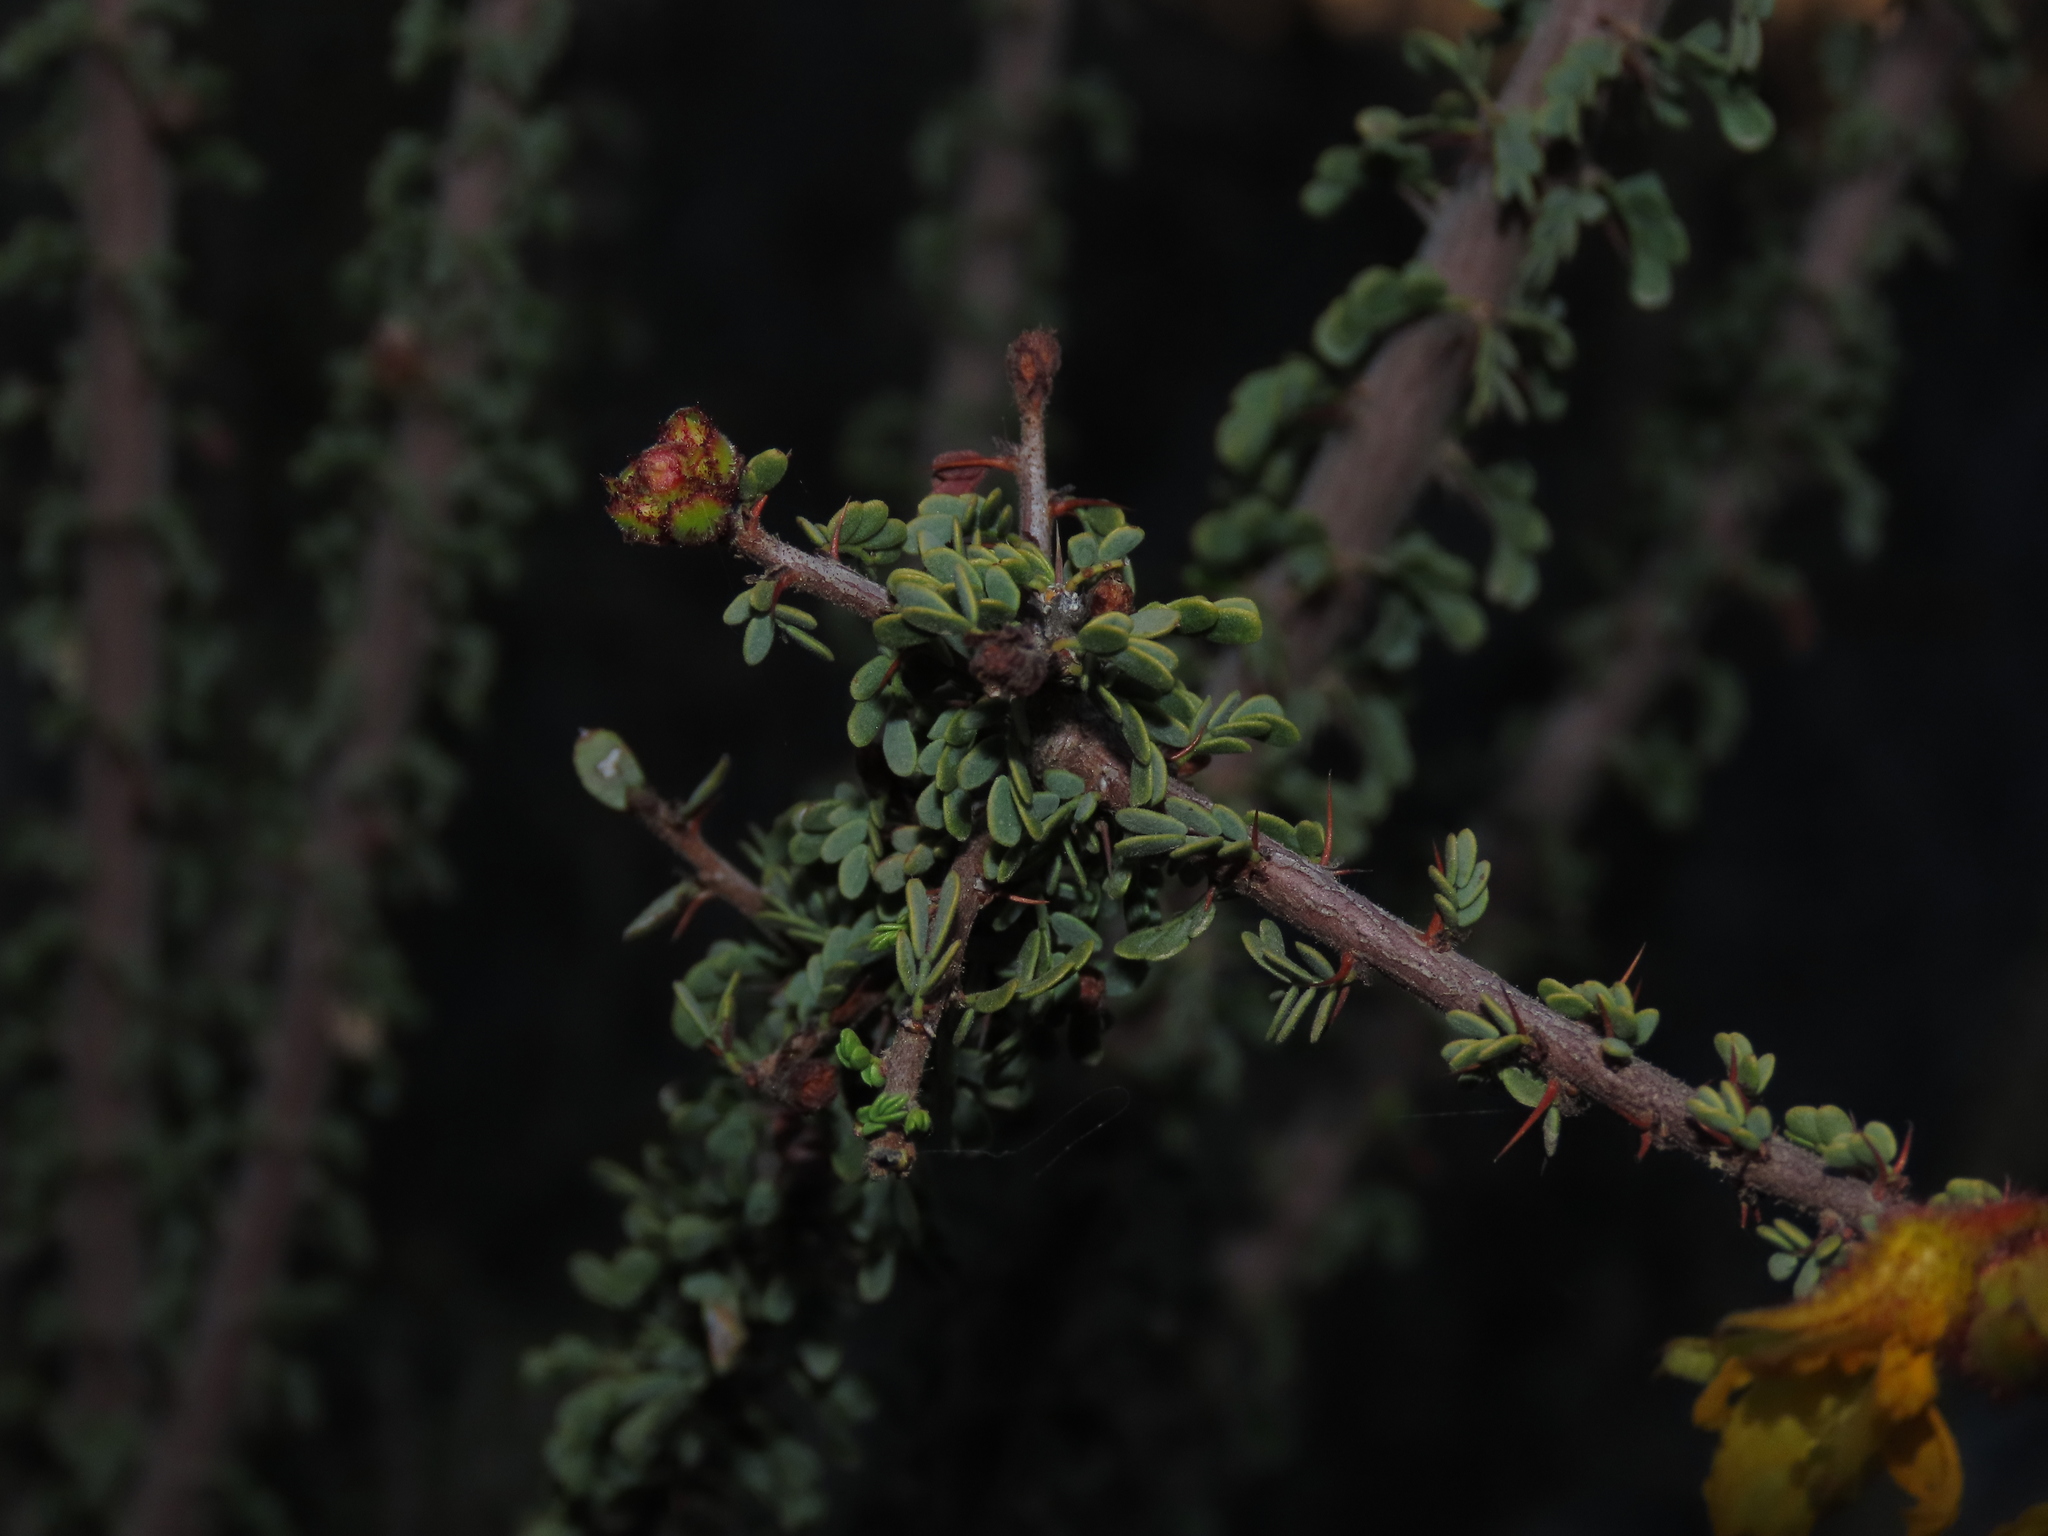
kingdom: Plantae
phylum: Tracheophyta
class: Magnoliopsida
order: Fabales
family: Fabaceae
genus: Balsamocarpon
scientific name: Balsamocarpon brevifolium
